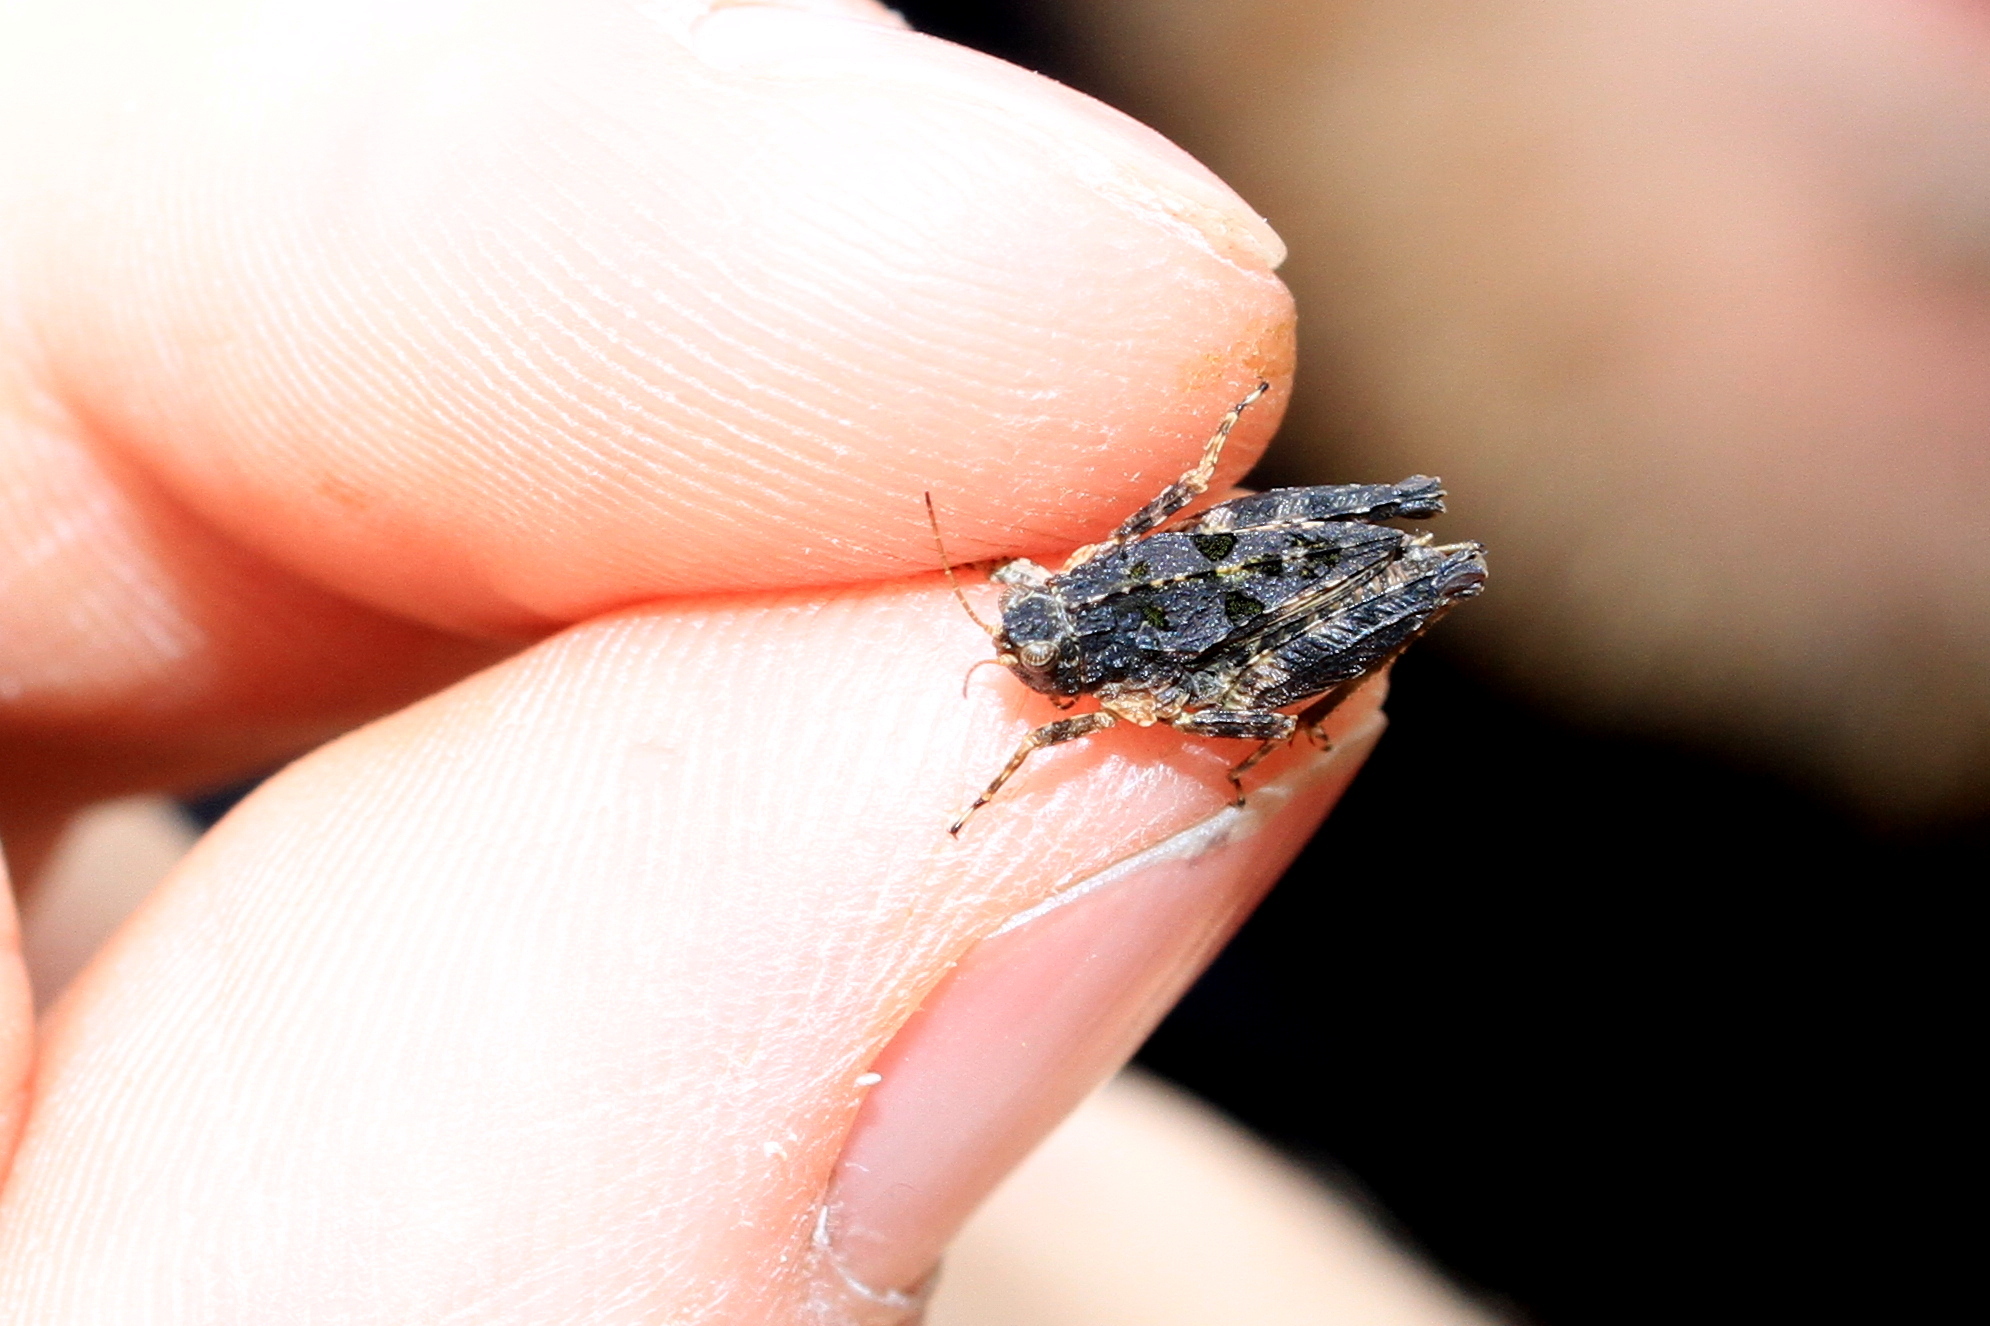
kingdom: Animalia
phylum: Arthropoda
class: Insecta
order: Orthoptera
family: Tetrigidae
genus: Tetrix
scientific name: Tetrix tenuicornis
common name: Long-horned groundhopper
